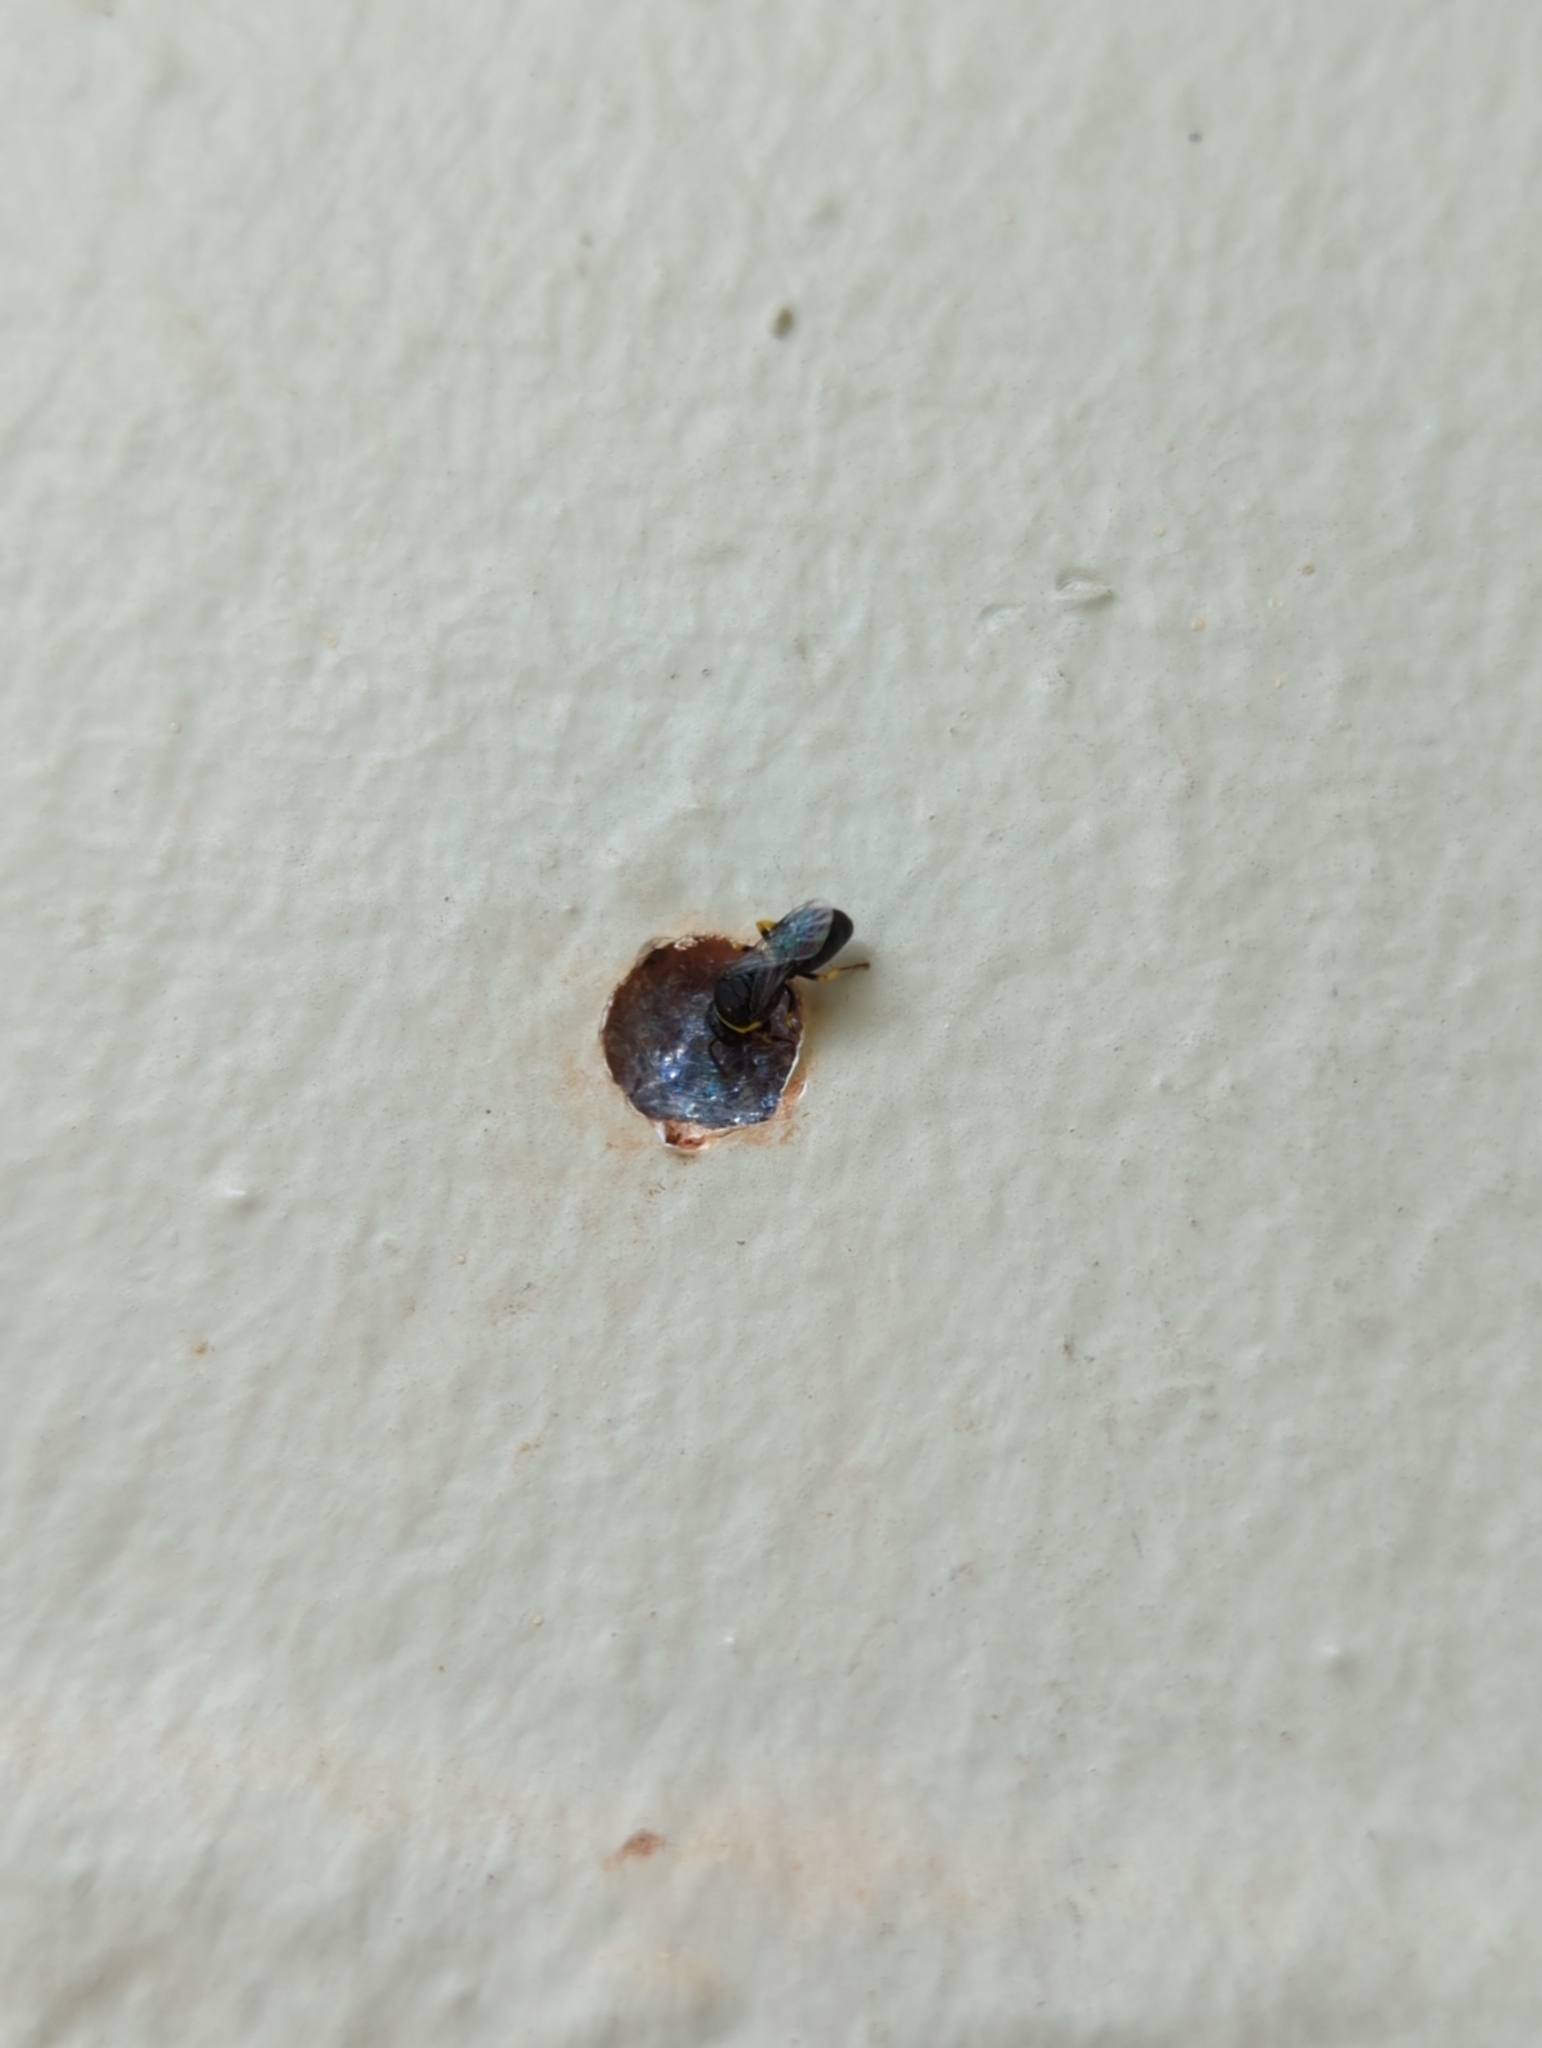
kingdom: Animalia
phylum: Arthropoda
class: Insecta
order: Hymenoptera
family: Colletidae
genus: Hylaeus
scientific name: Hylaeus euxanthus
